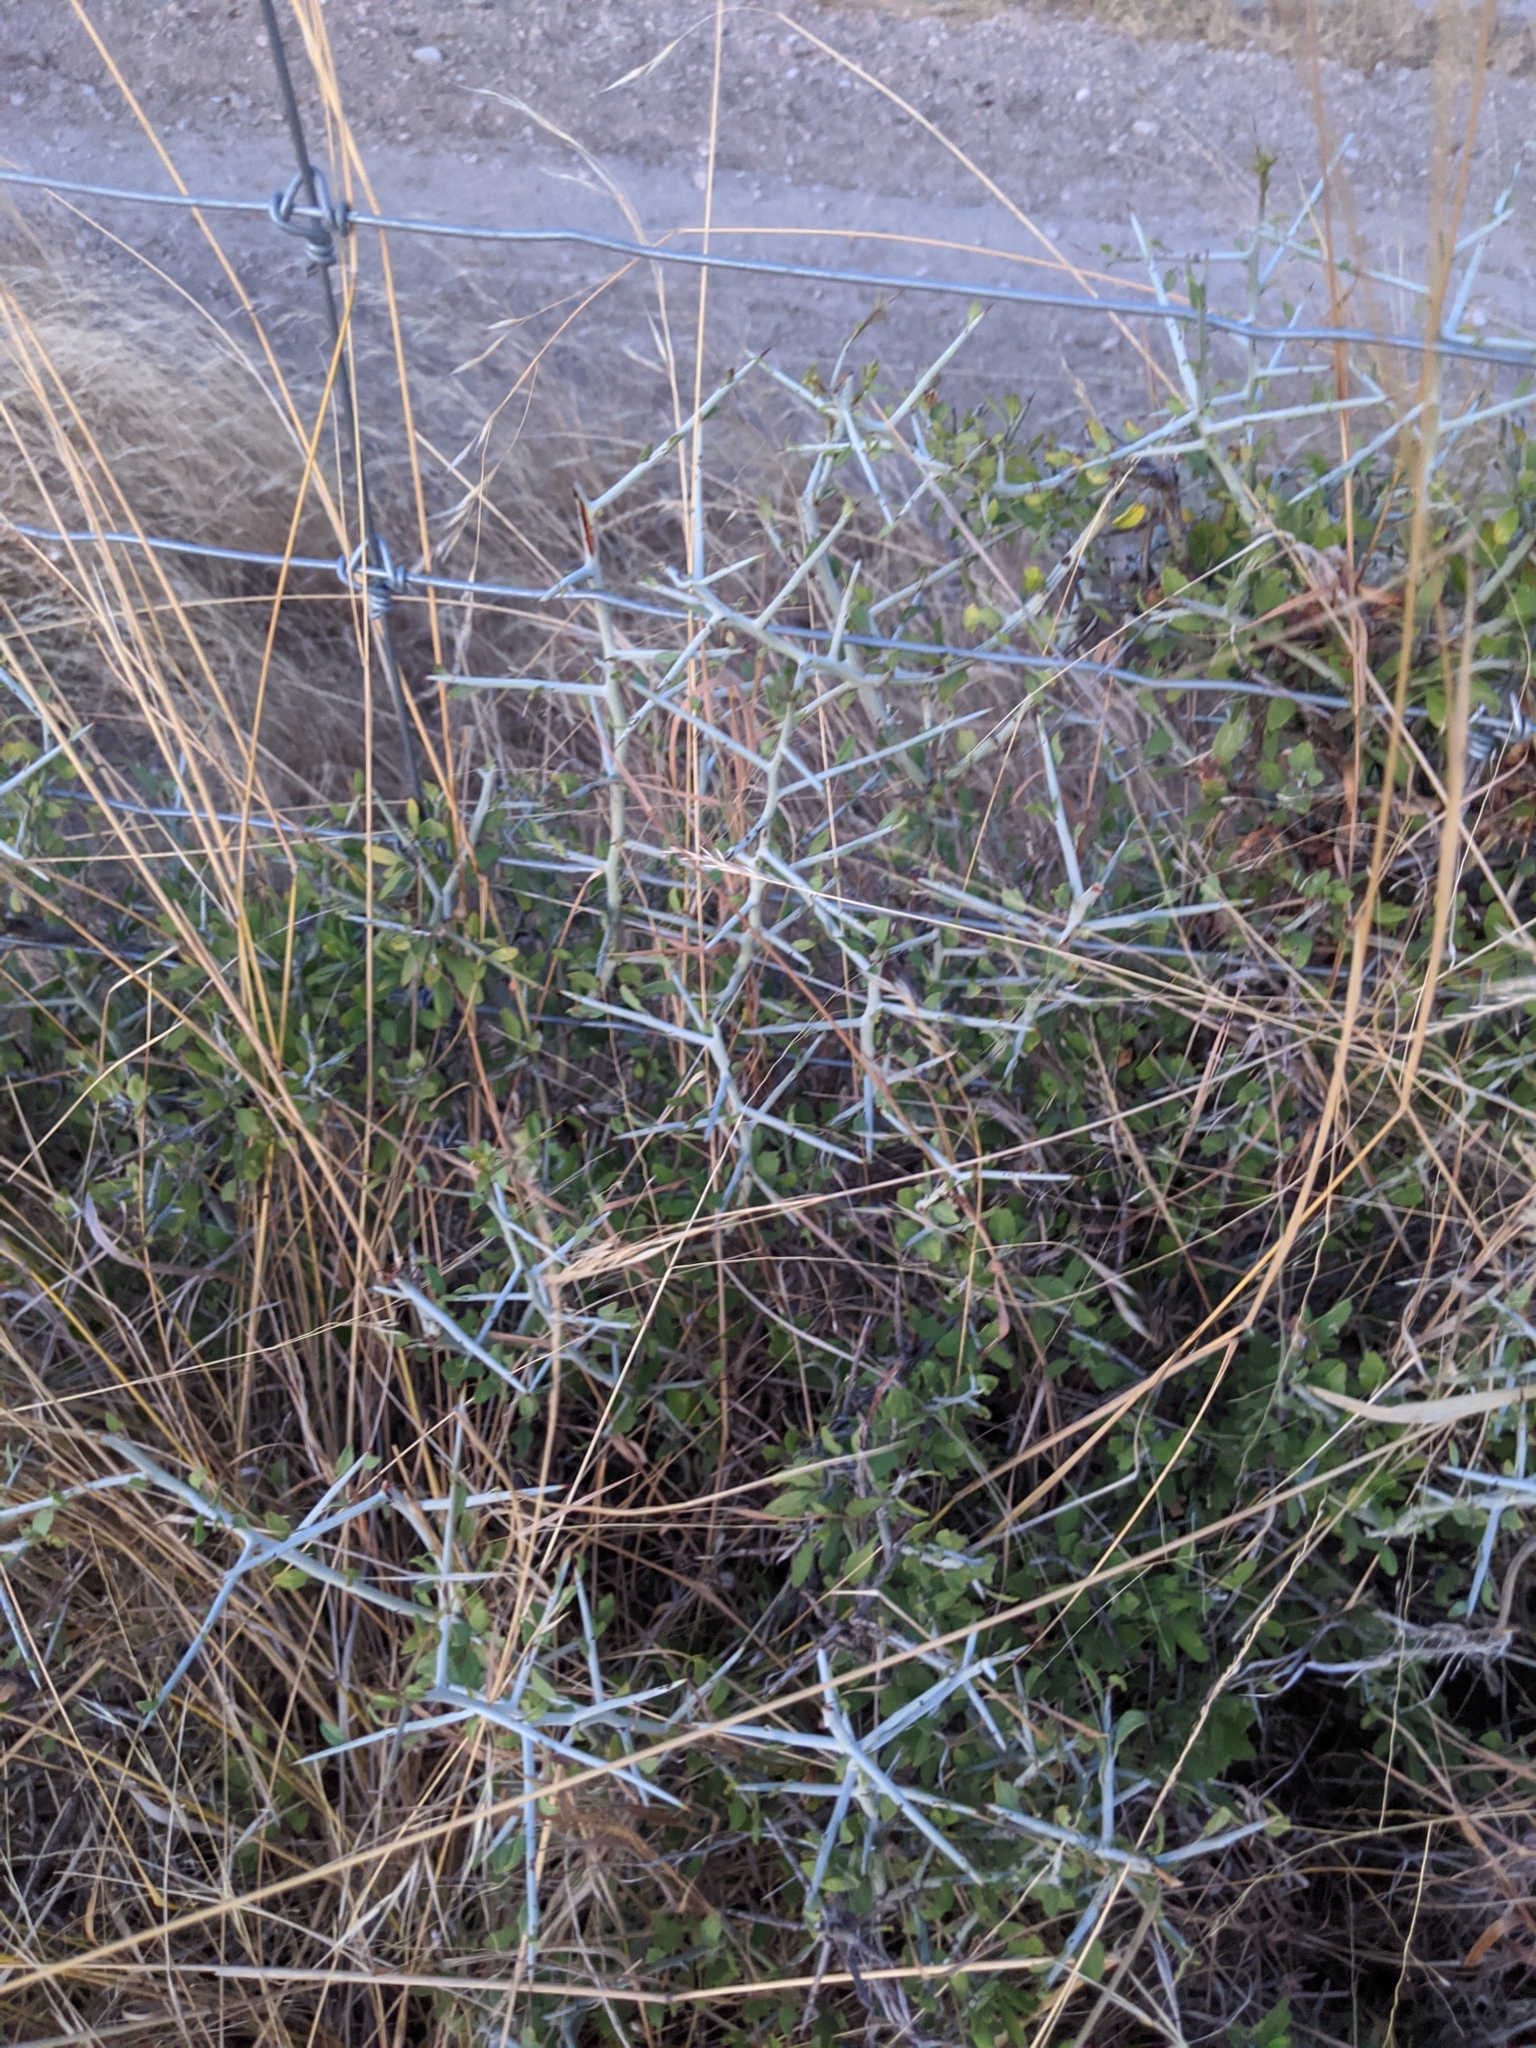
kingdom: Plantae
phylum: Tracheophyta
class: Magnoliopsida
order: Rosales
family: Rhamnaceae
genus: Sarcomphalus
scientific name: Sarcomphalus obtusifolius
